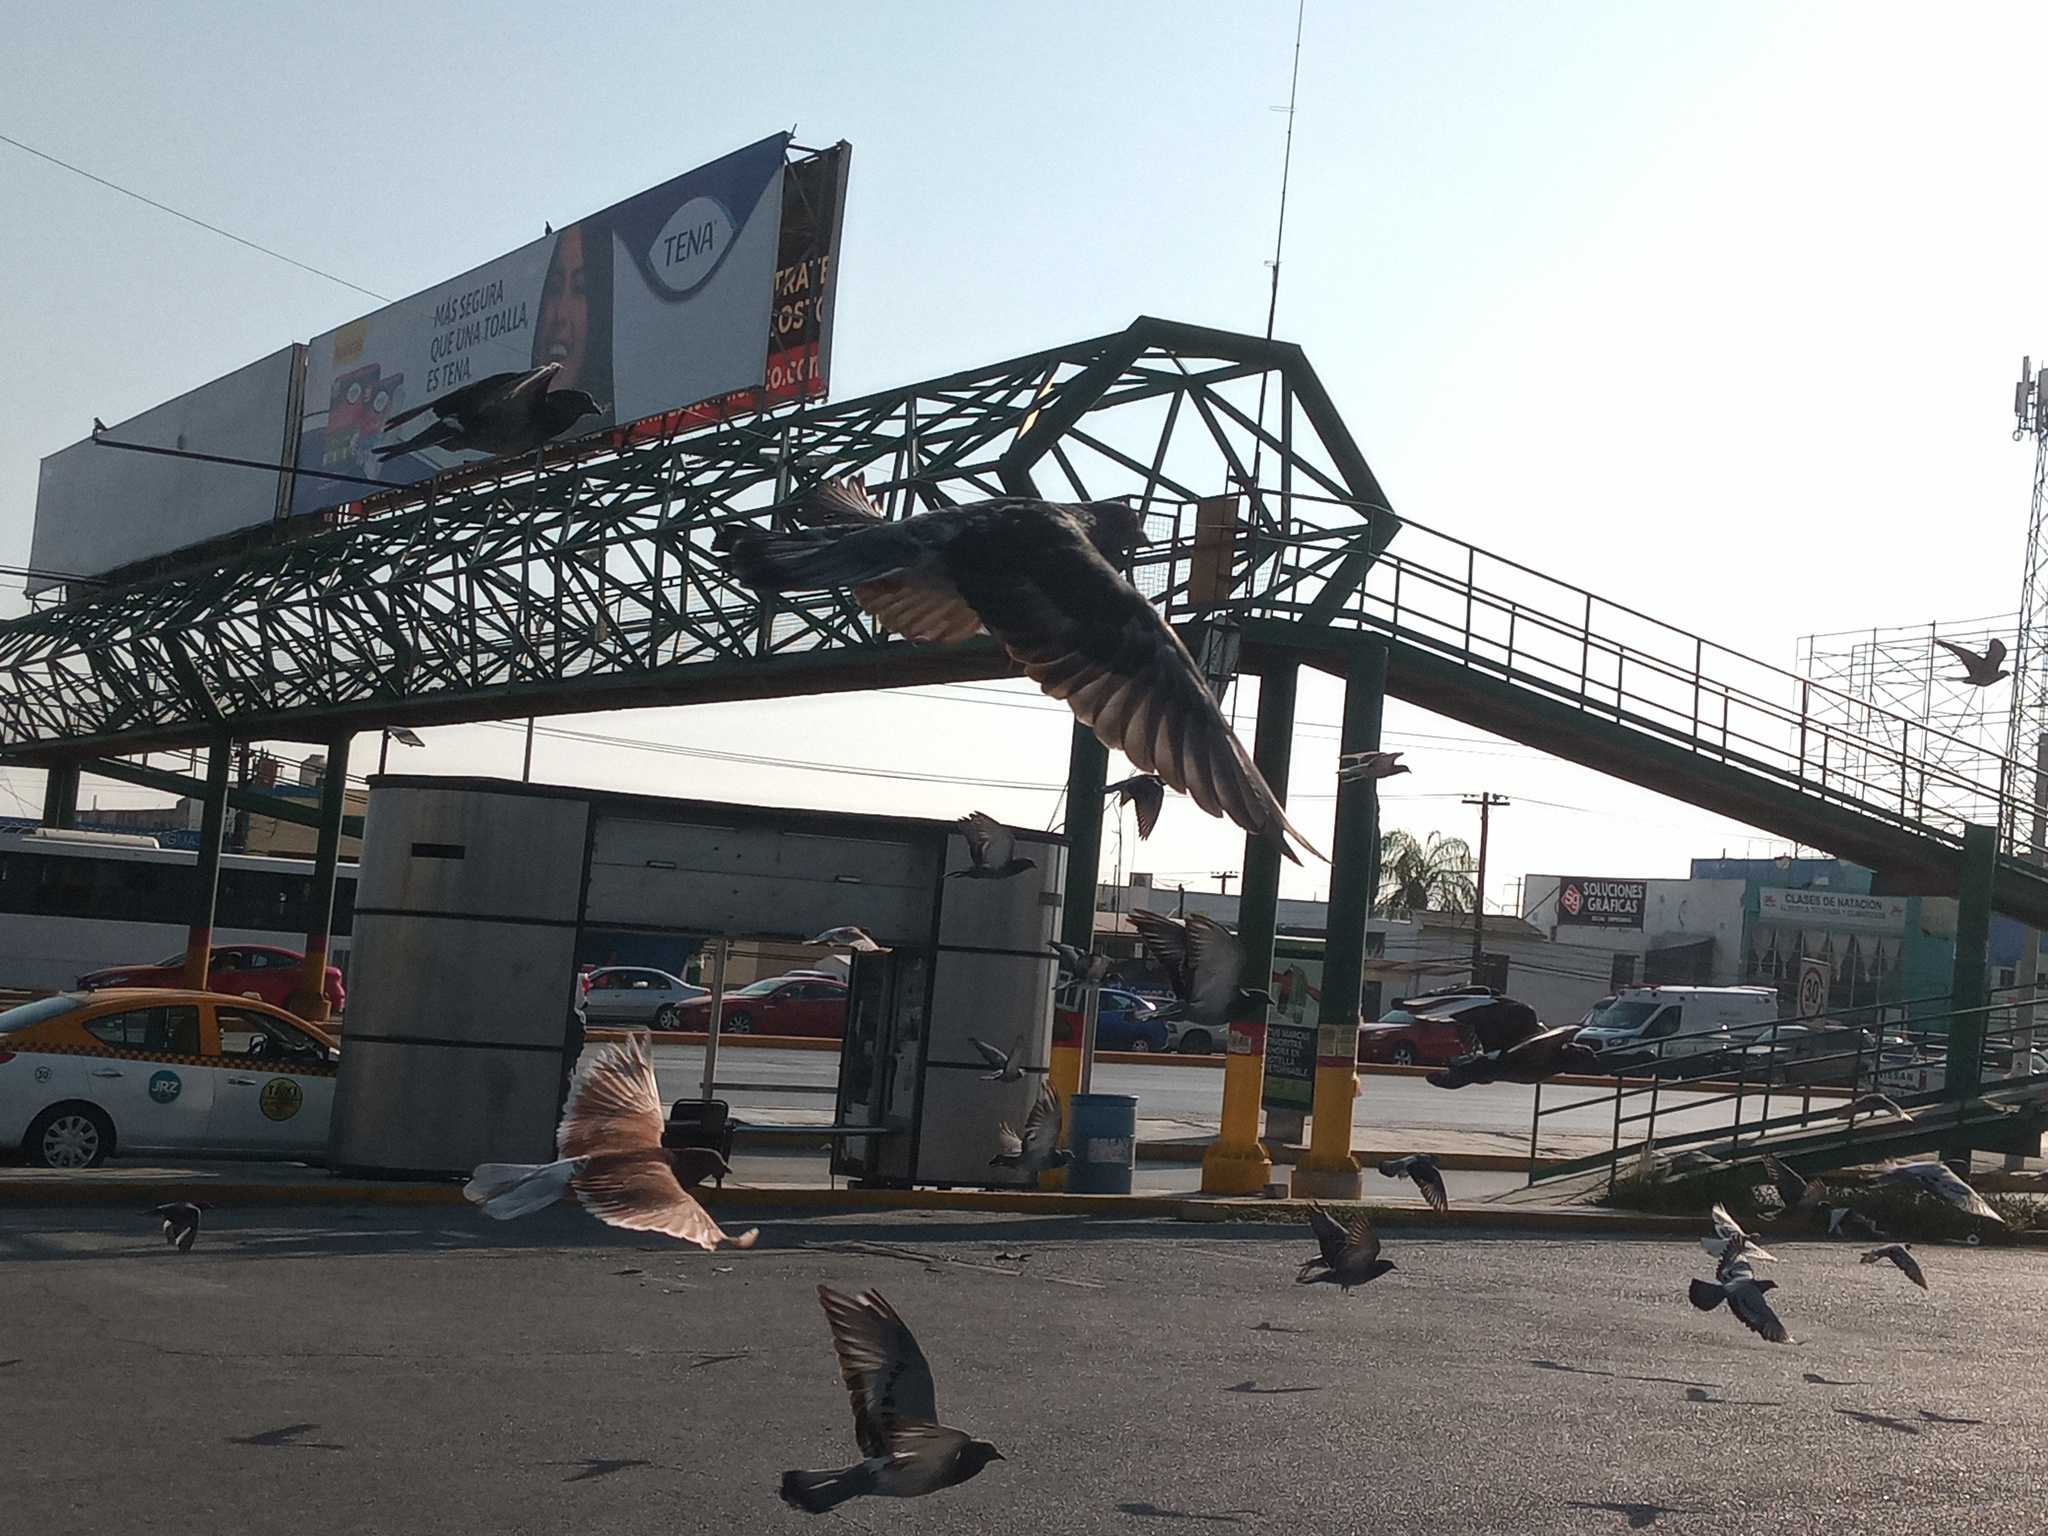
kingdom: Animalia
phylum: Chordata
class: Aves
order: Columbiformes
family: Columbidae
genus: Columba
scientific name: Columba livia
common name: Rock pigeon
